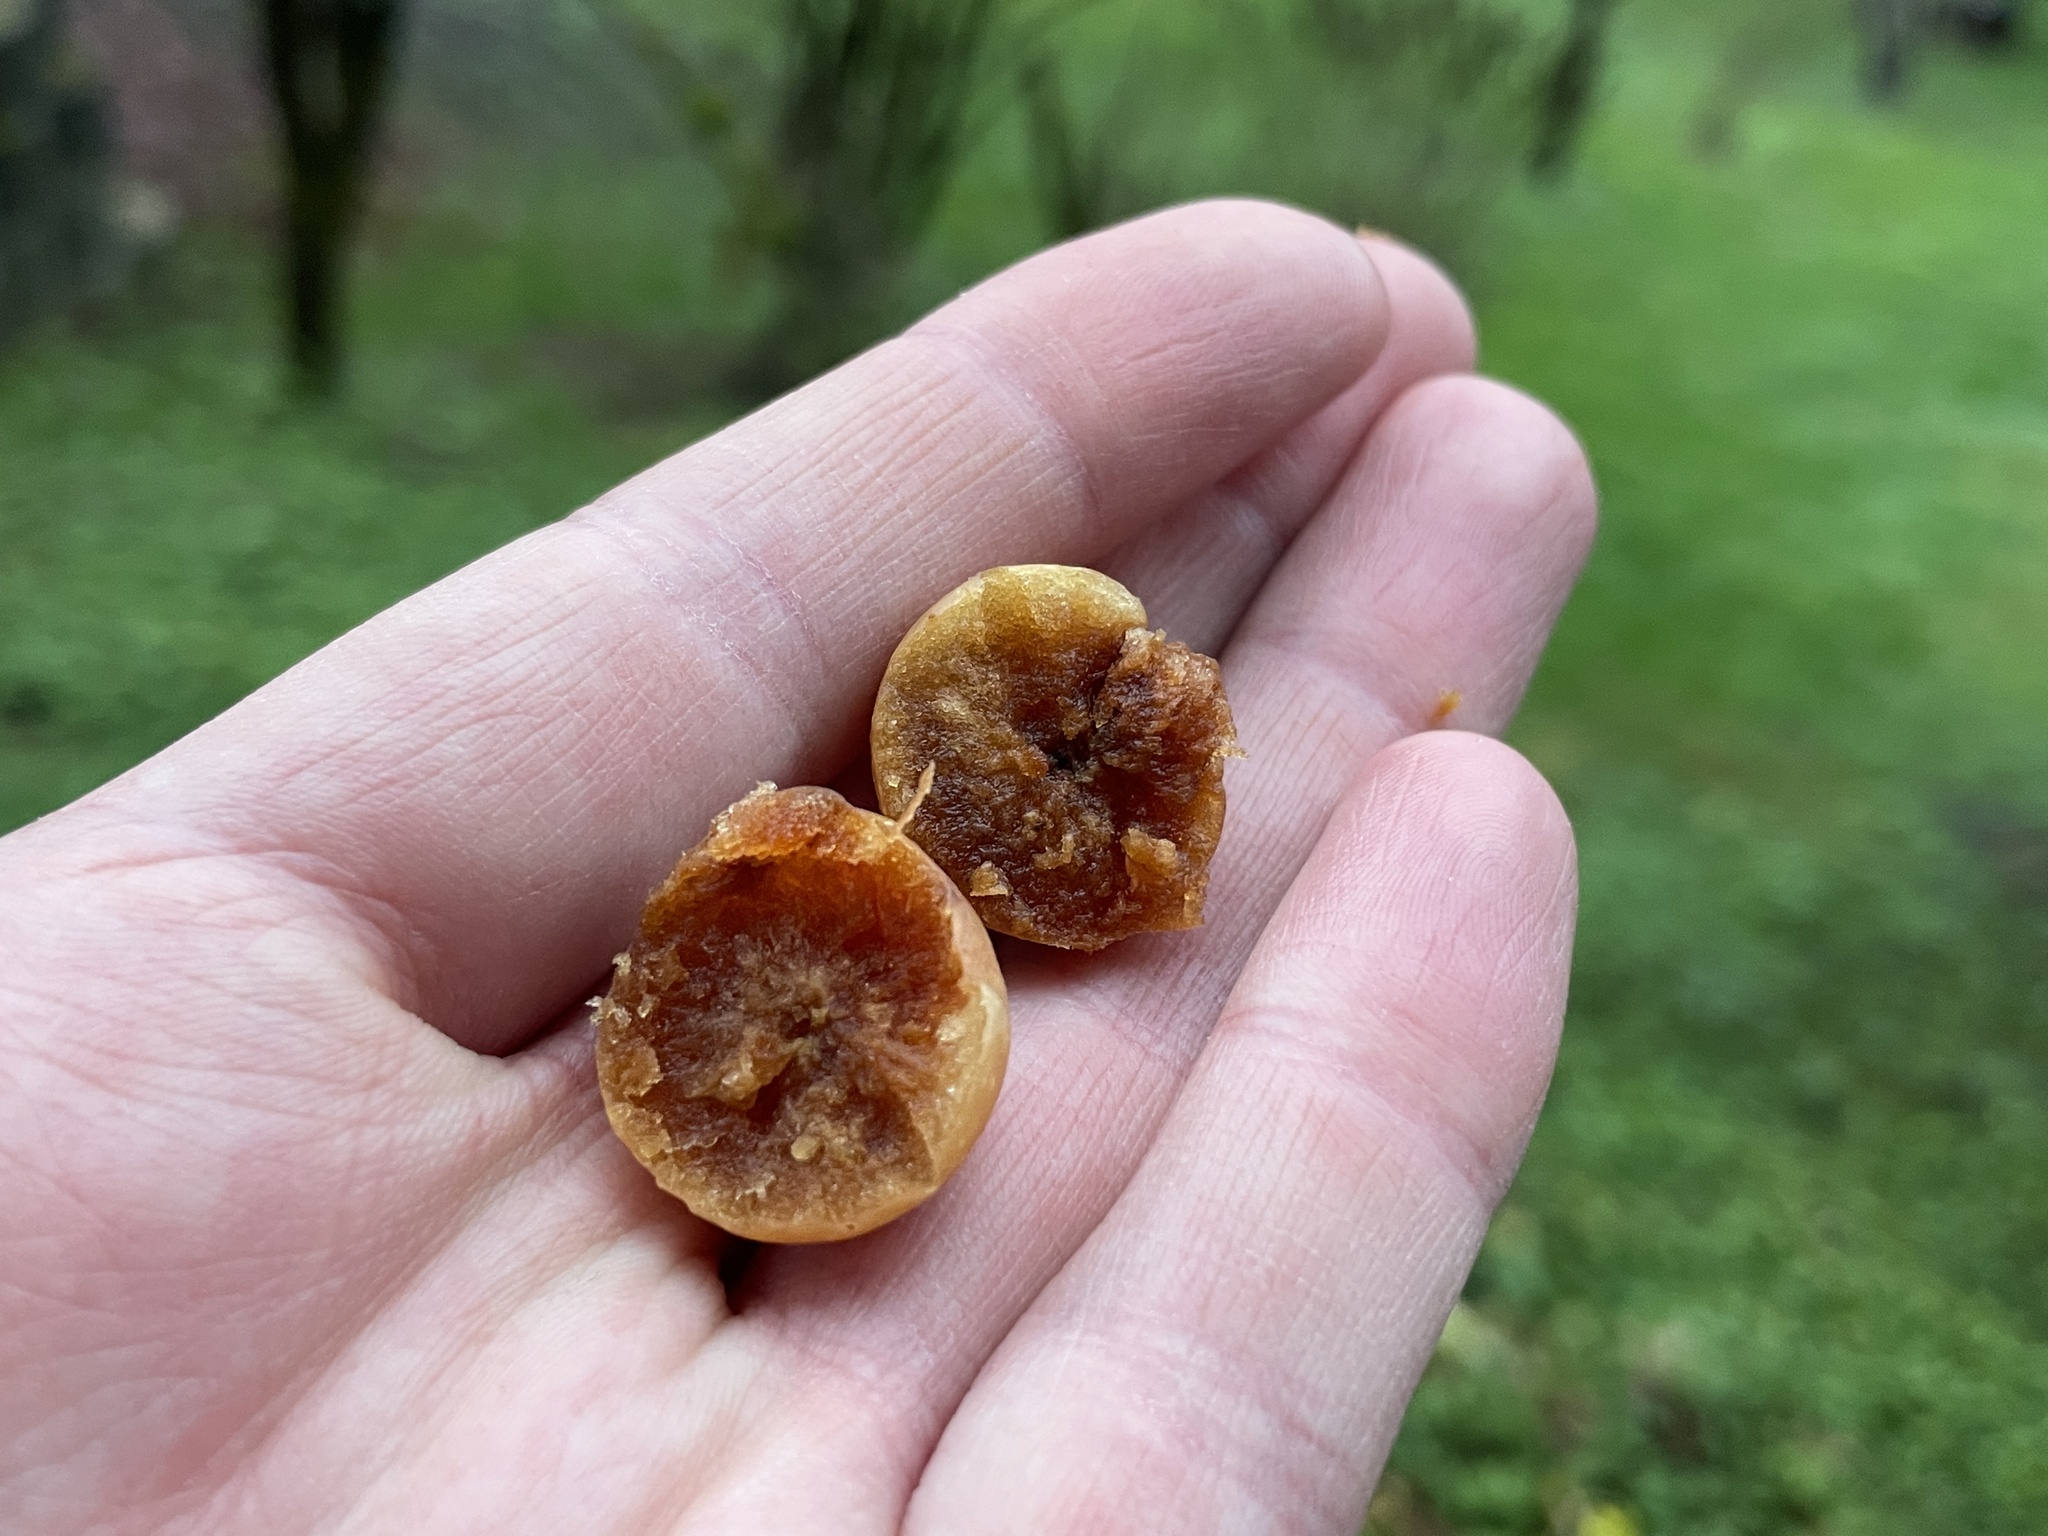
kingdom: Animalia
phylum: Arthropoda
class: Insecta
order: Hymenoptera
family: Cynipidae
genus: Cynips
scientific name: Cynips quercusfolii
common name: Cherry gall
